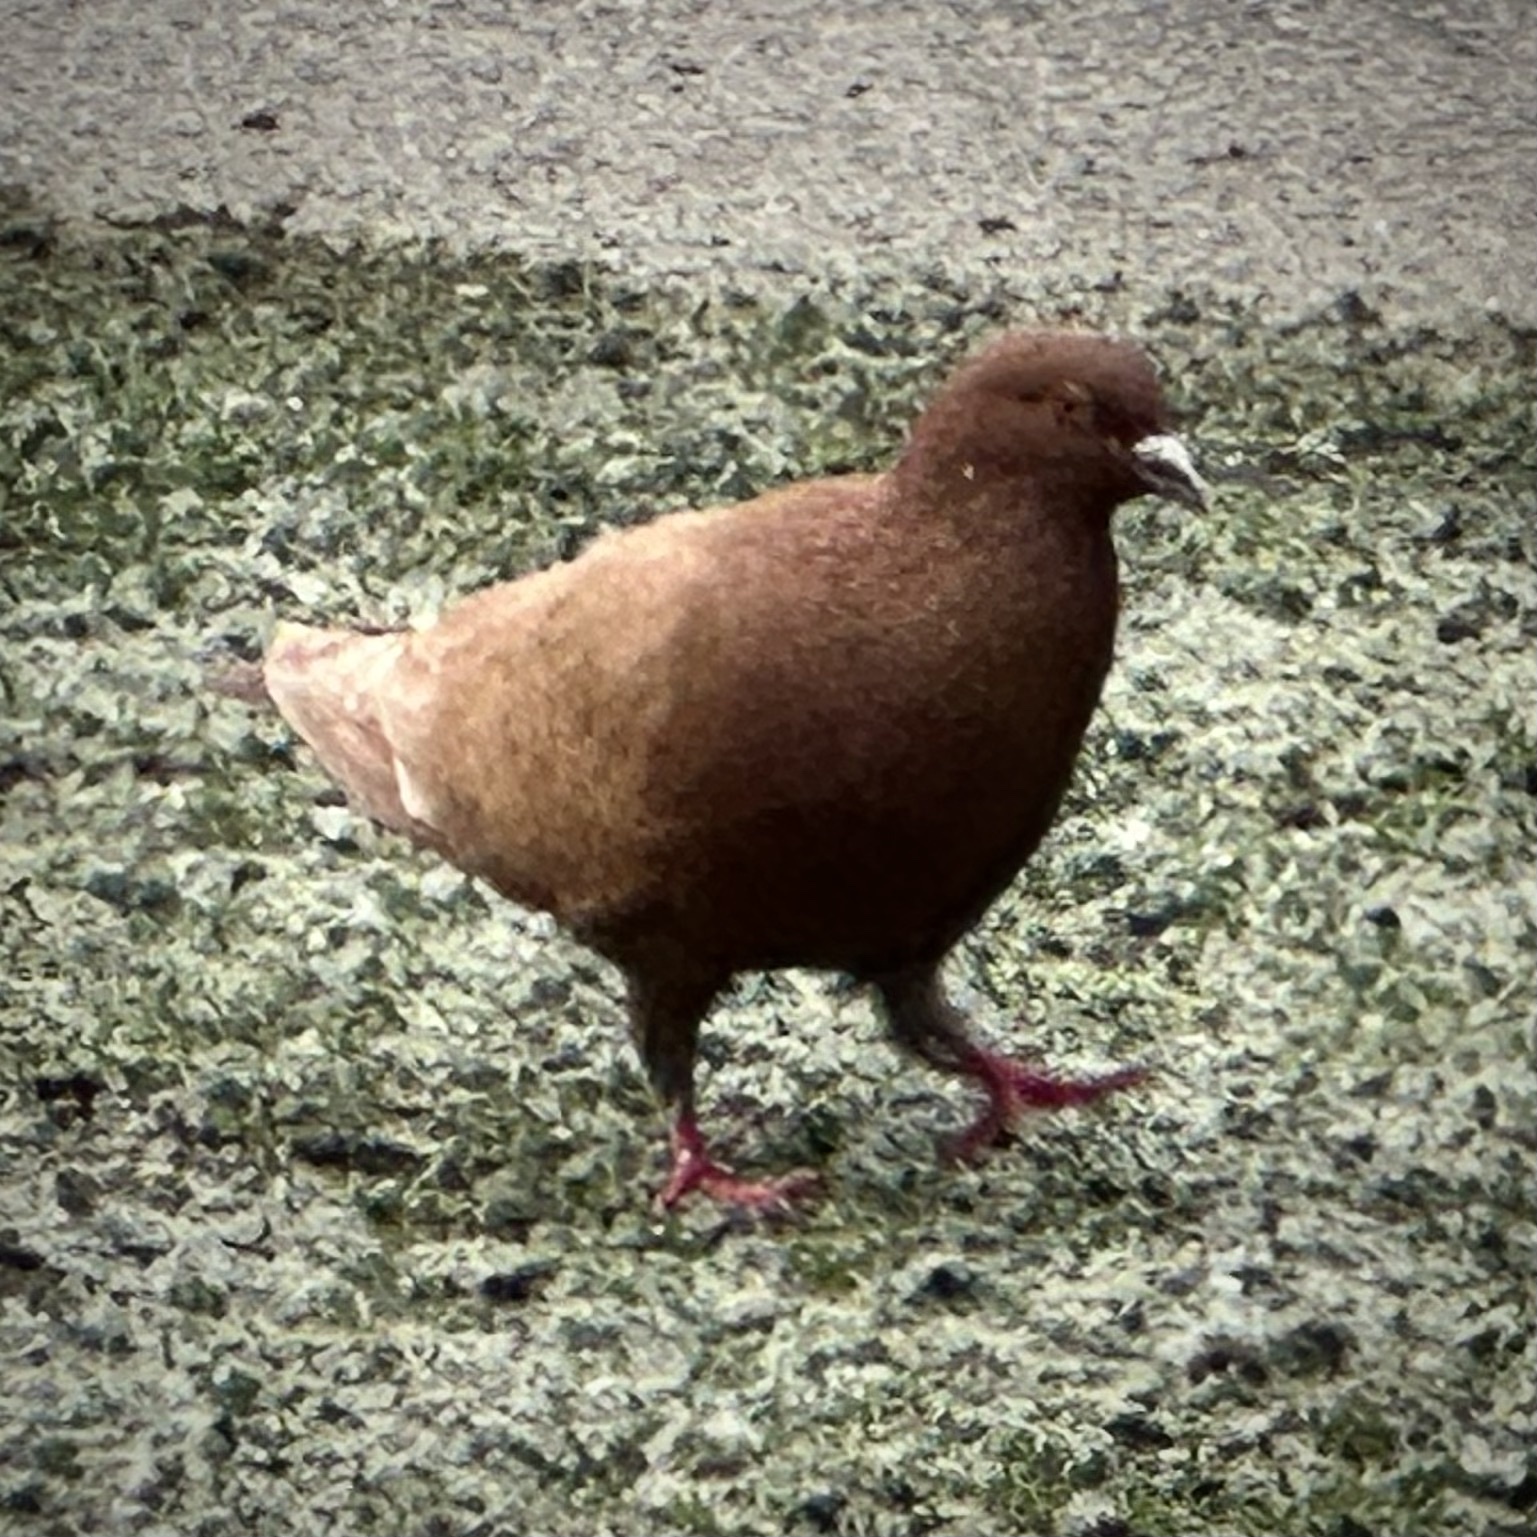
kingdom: Animalia
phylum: Chordata
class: Aves
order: Columbiformes
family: Columbidae
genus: Columba
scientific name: Columba livia
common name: Rock pigeon
